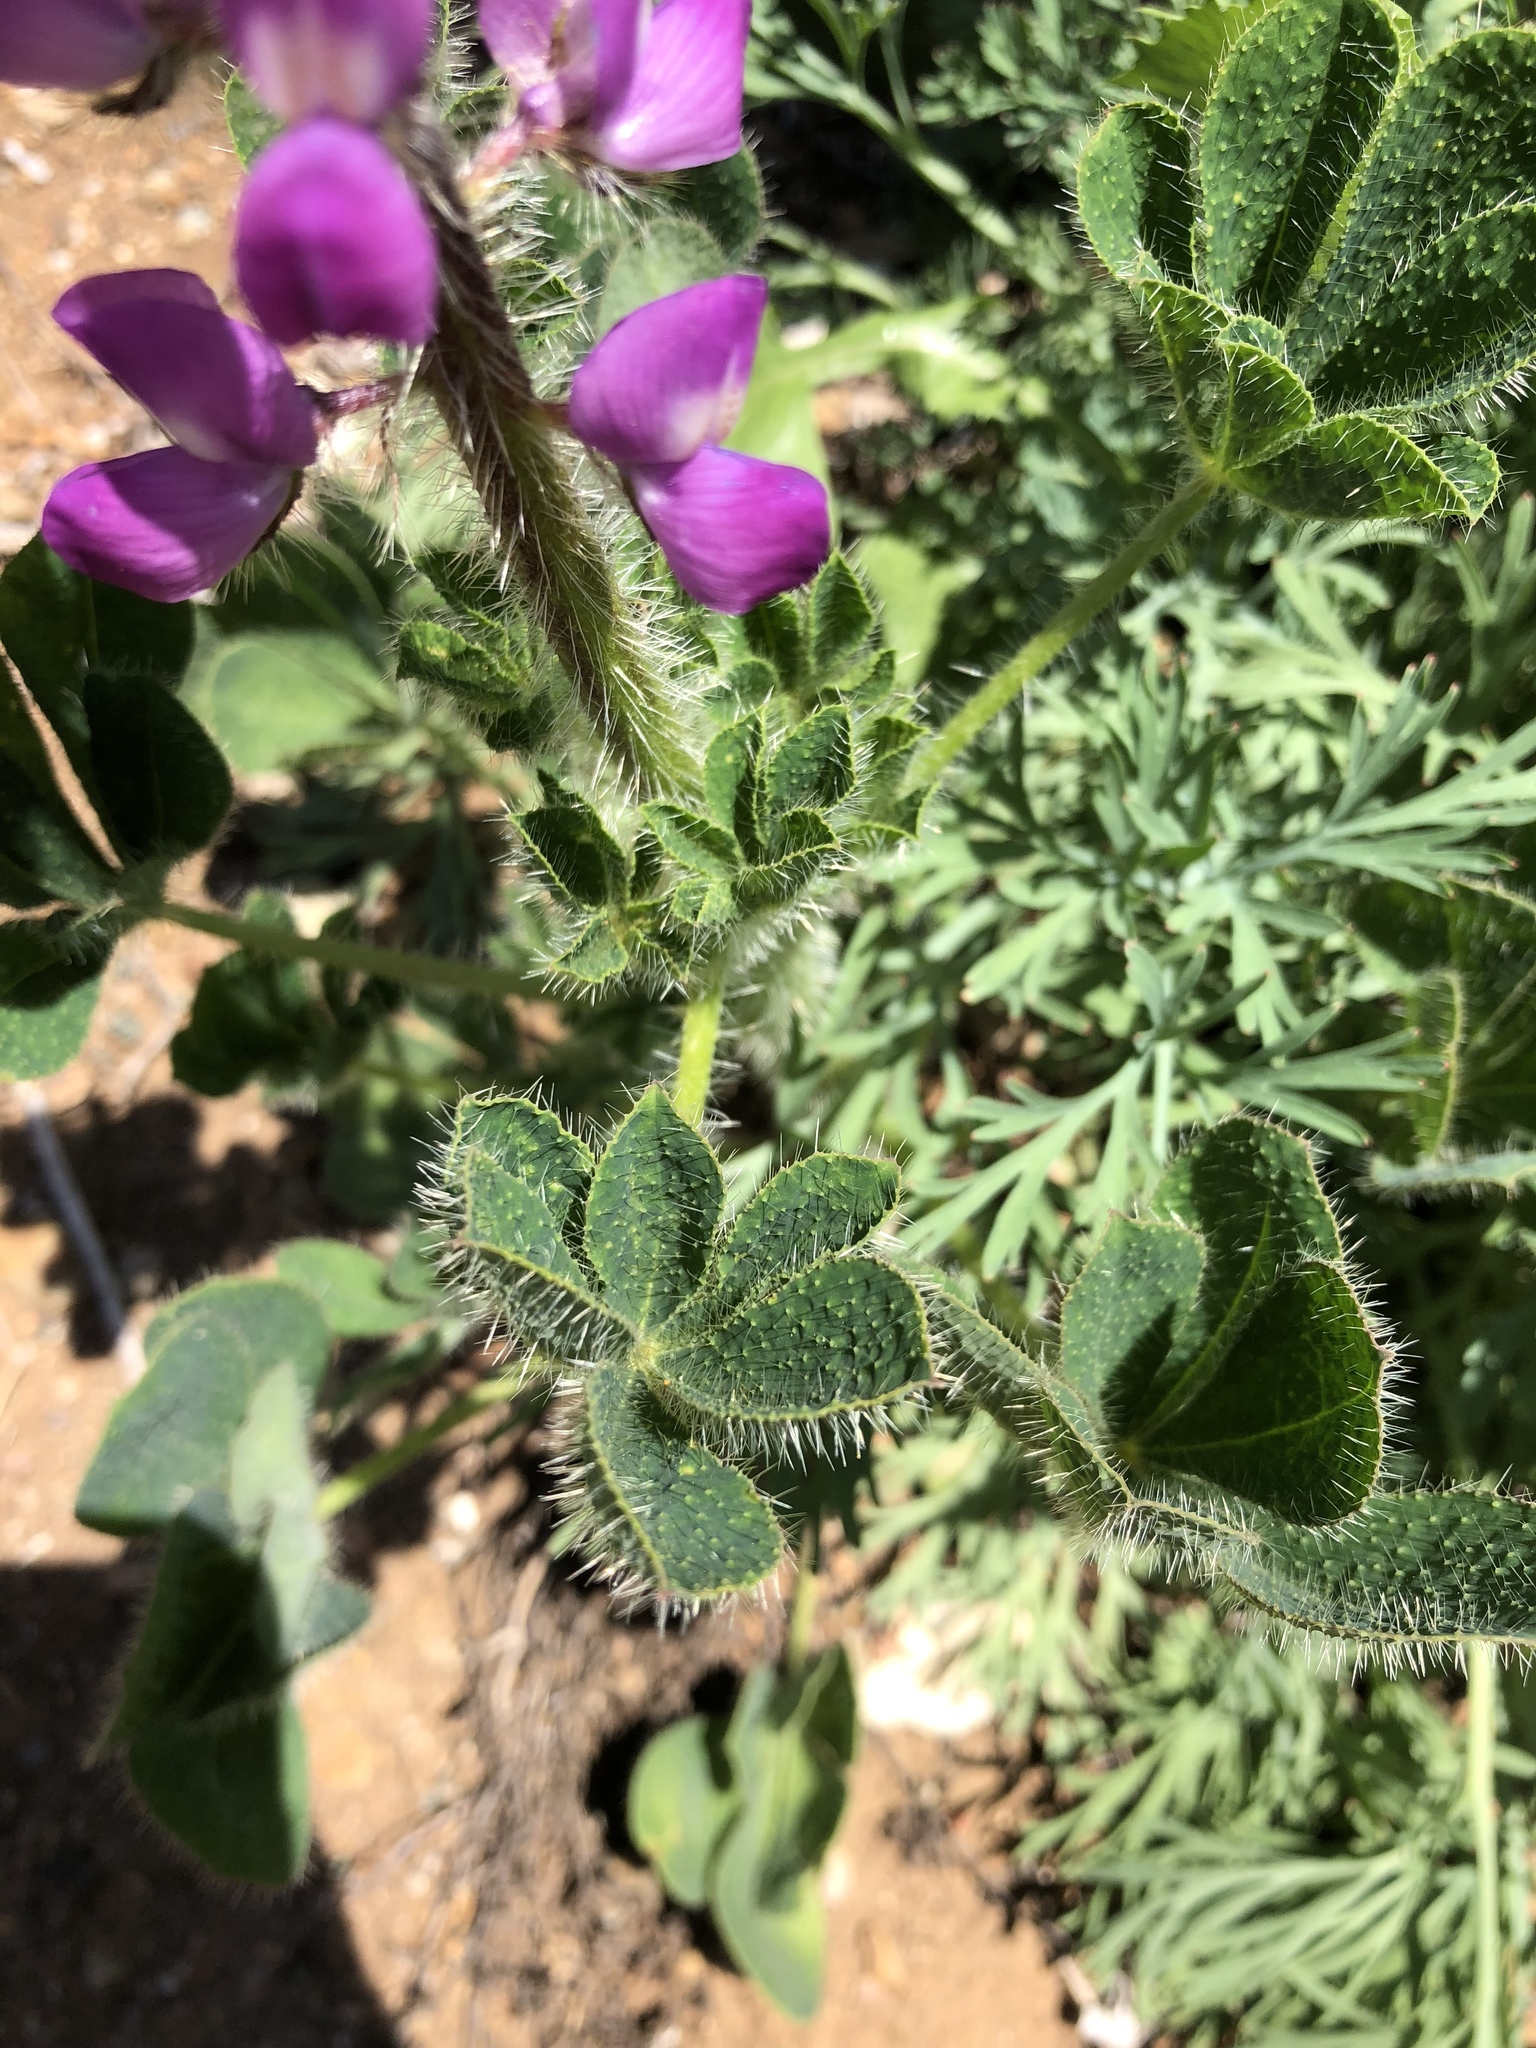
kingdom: Plantae
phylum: Tracheophyta
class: Magnoliopsida
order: Fabales
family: Fabaceae
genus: Lupinus
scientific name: Lupinus hirsutissimus
